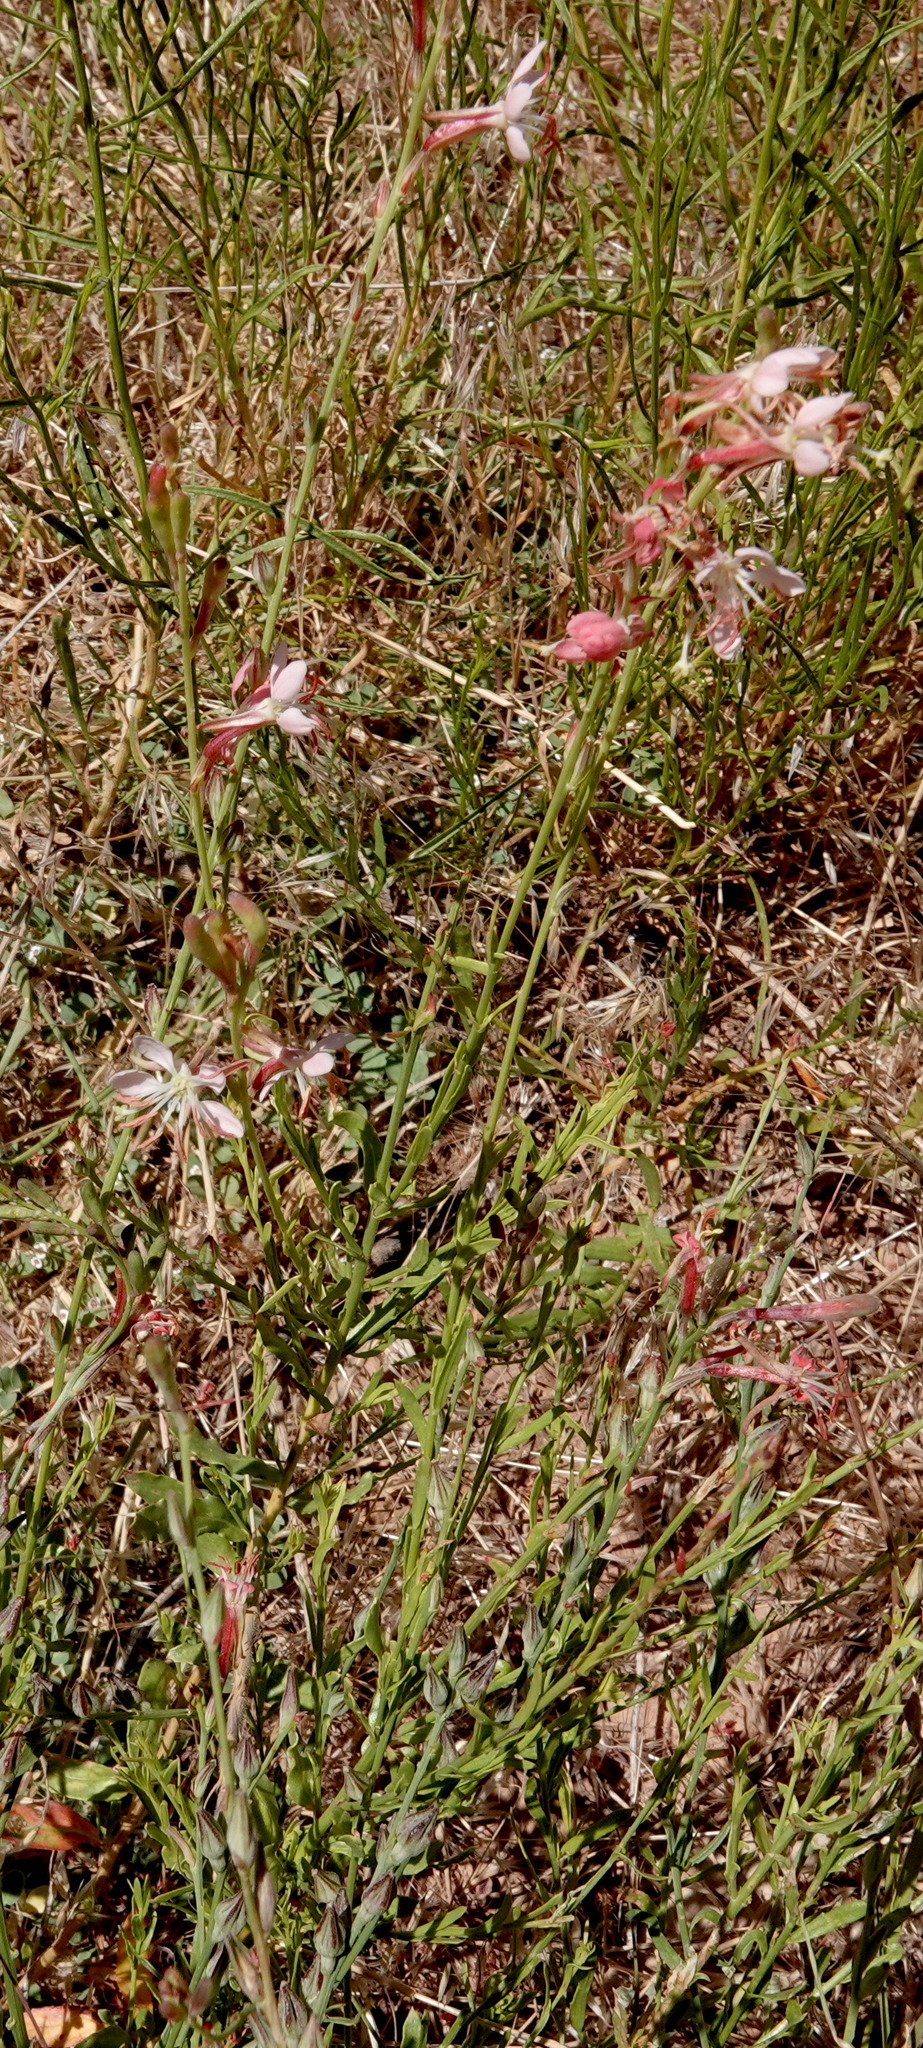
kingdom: Plantae
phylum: Tracheophyta
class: Magnoliopsida
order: Myrtales
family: Onagraceae
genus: Oenothera
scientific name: Oenothera suffrutescens
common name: Scarlet beeblossom
